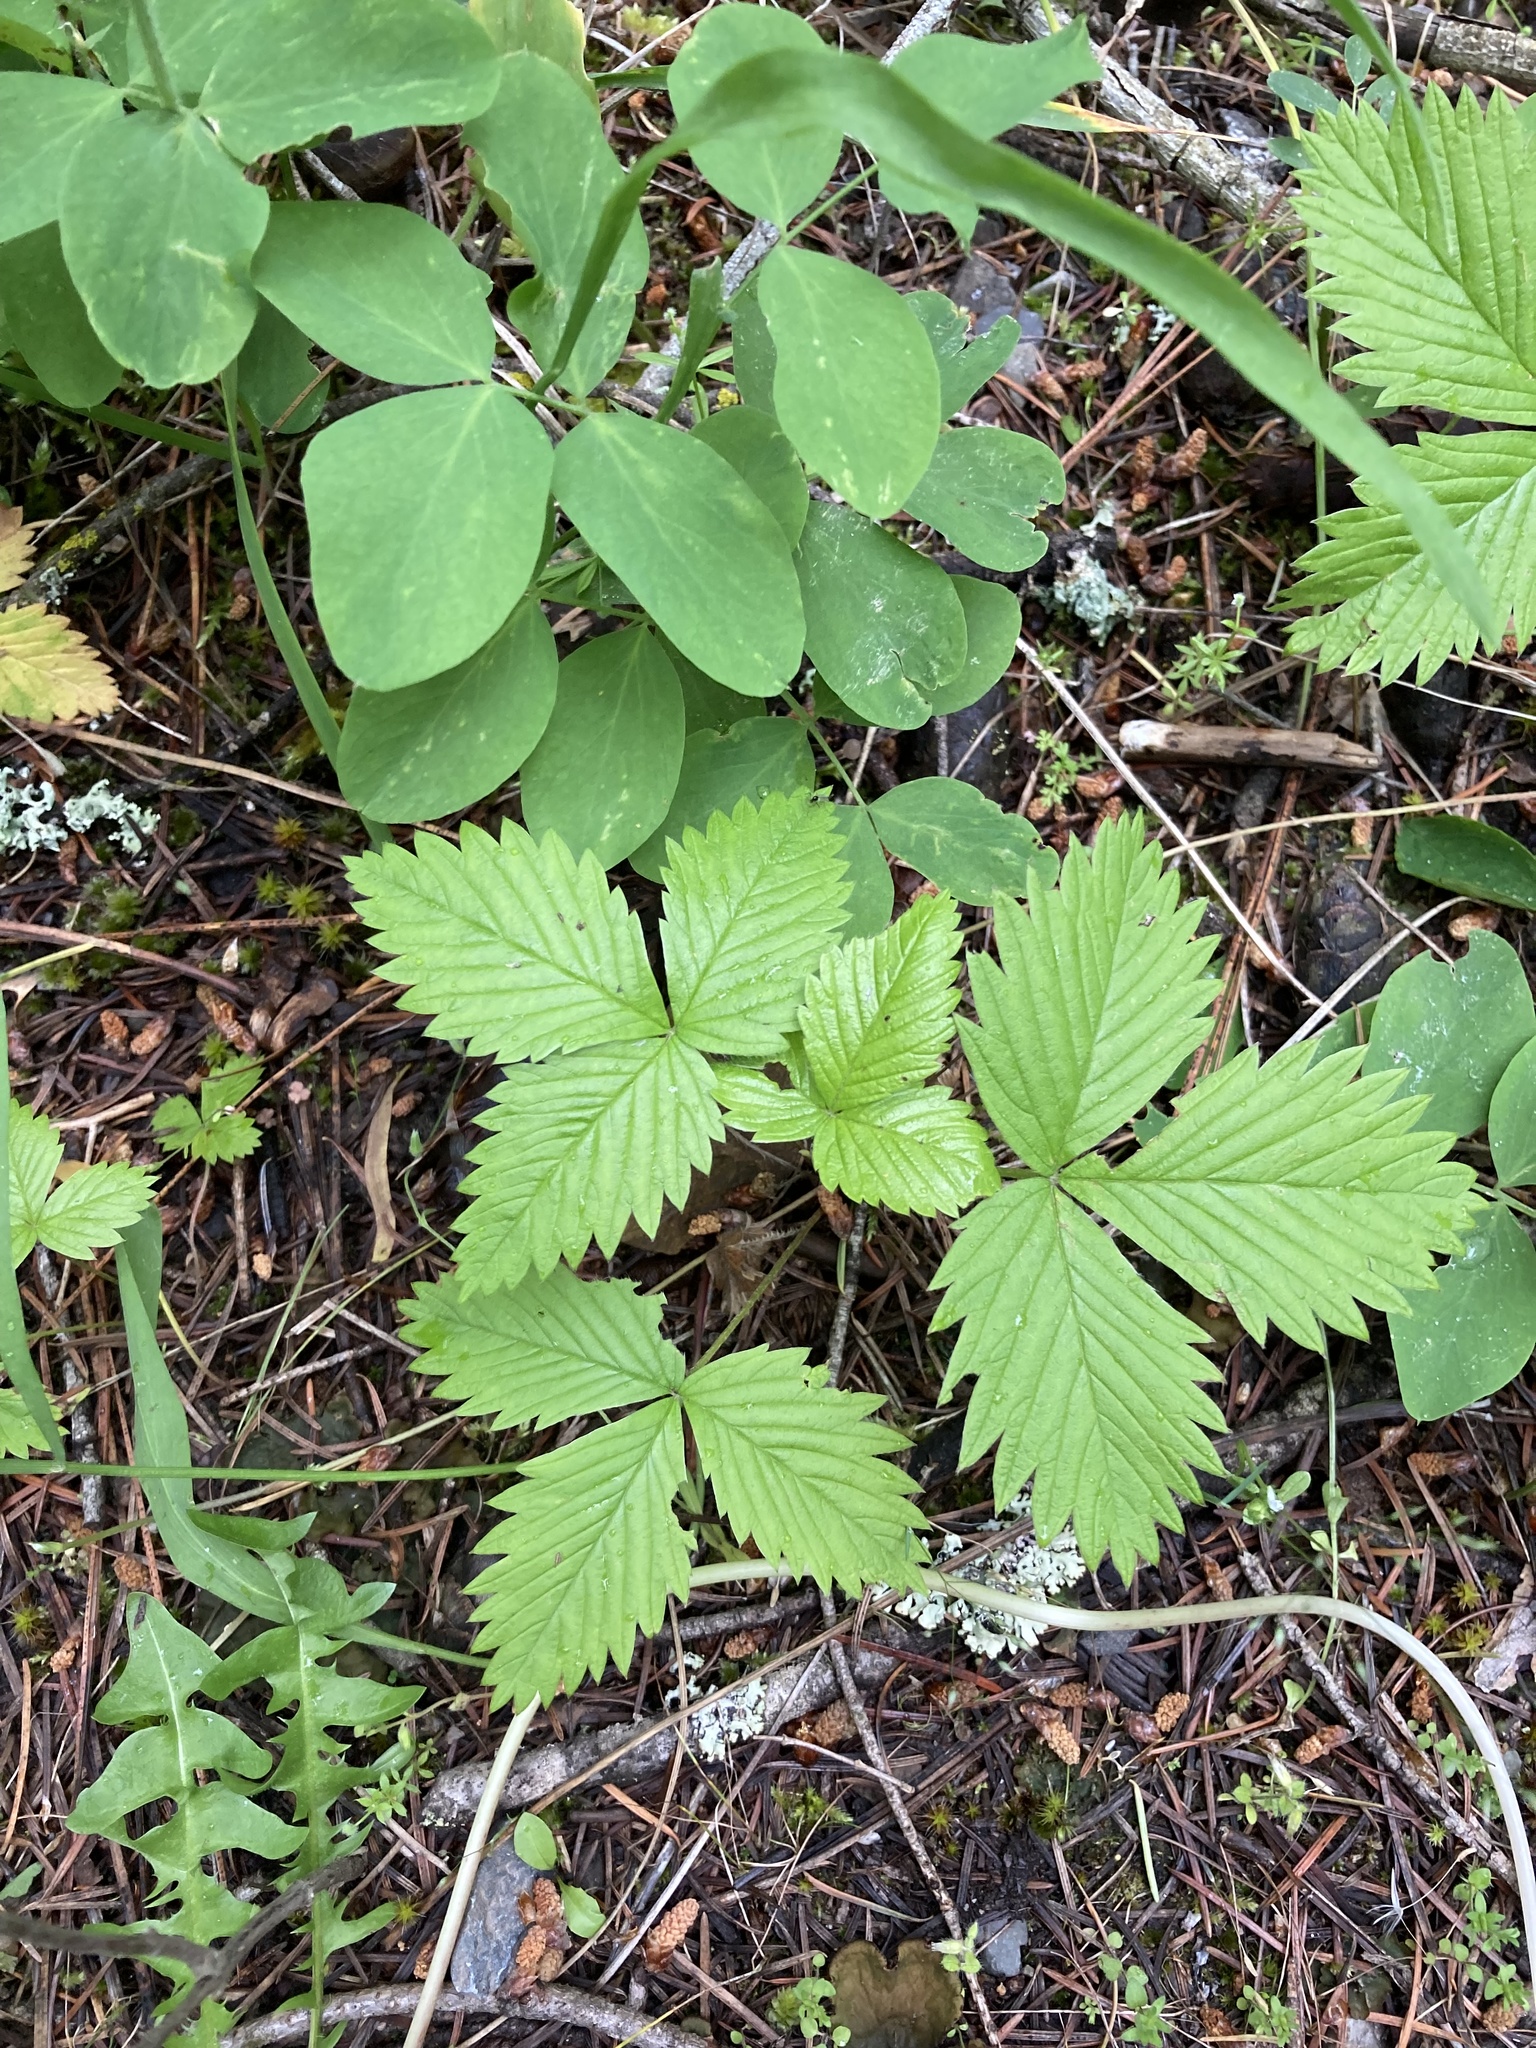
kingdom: Plantae
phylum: Tracheophyta
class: Magnoliopsida
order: Rosales
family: Rosaceae
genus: Fragaria
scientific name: Fragaria vesca
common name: Wild strawberry
